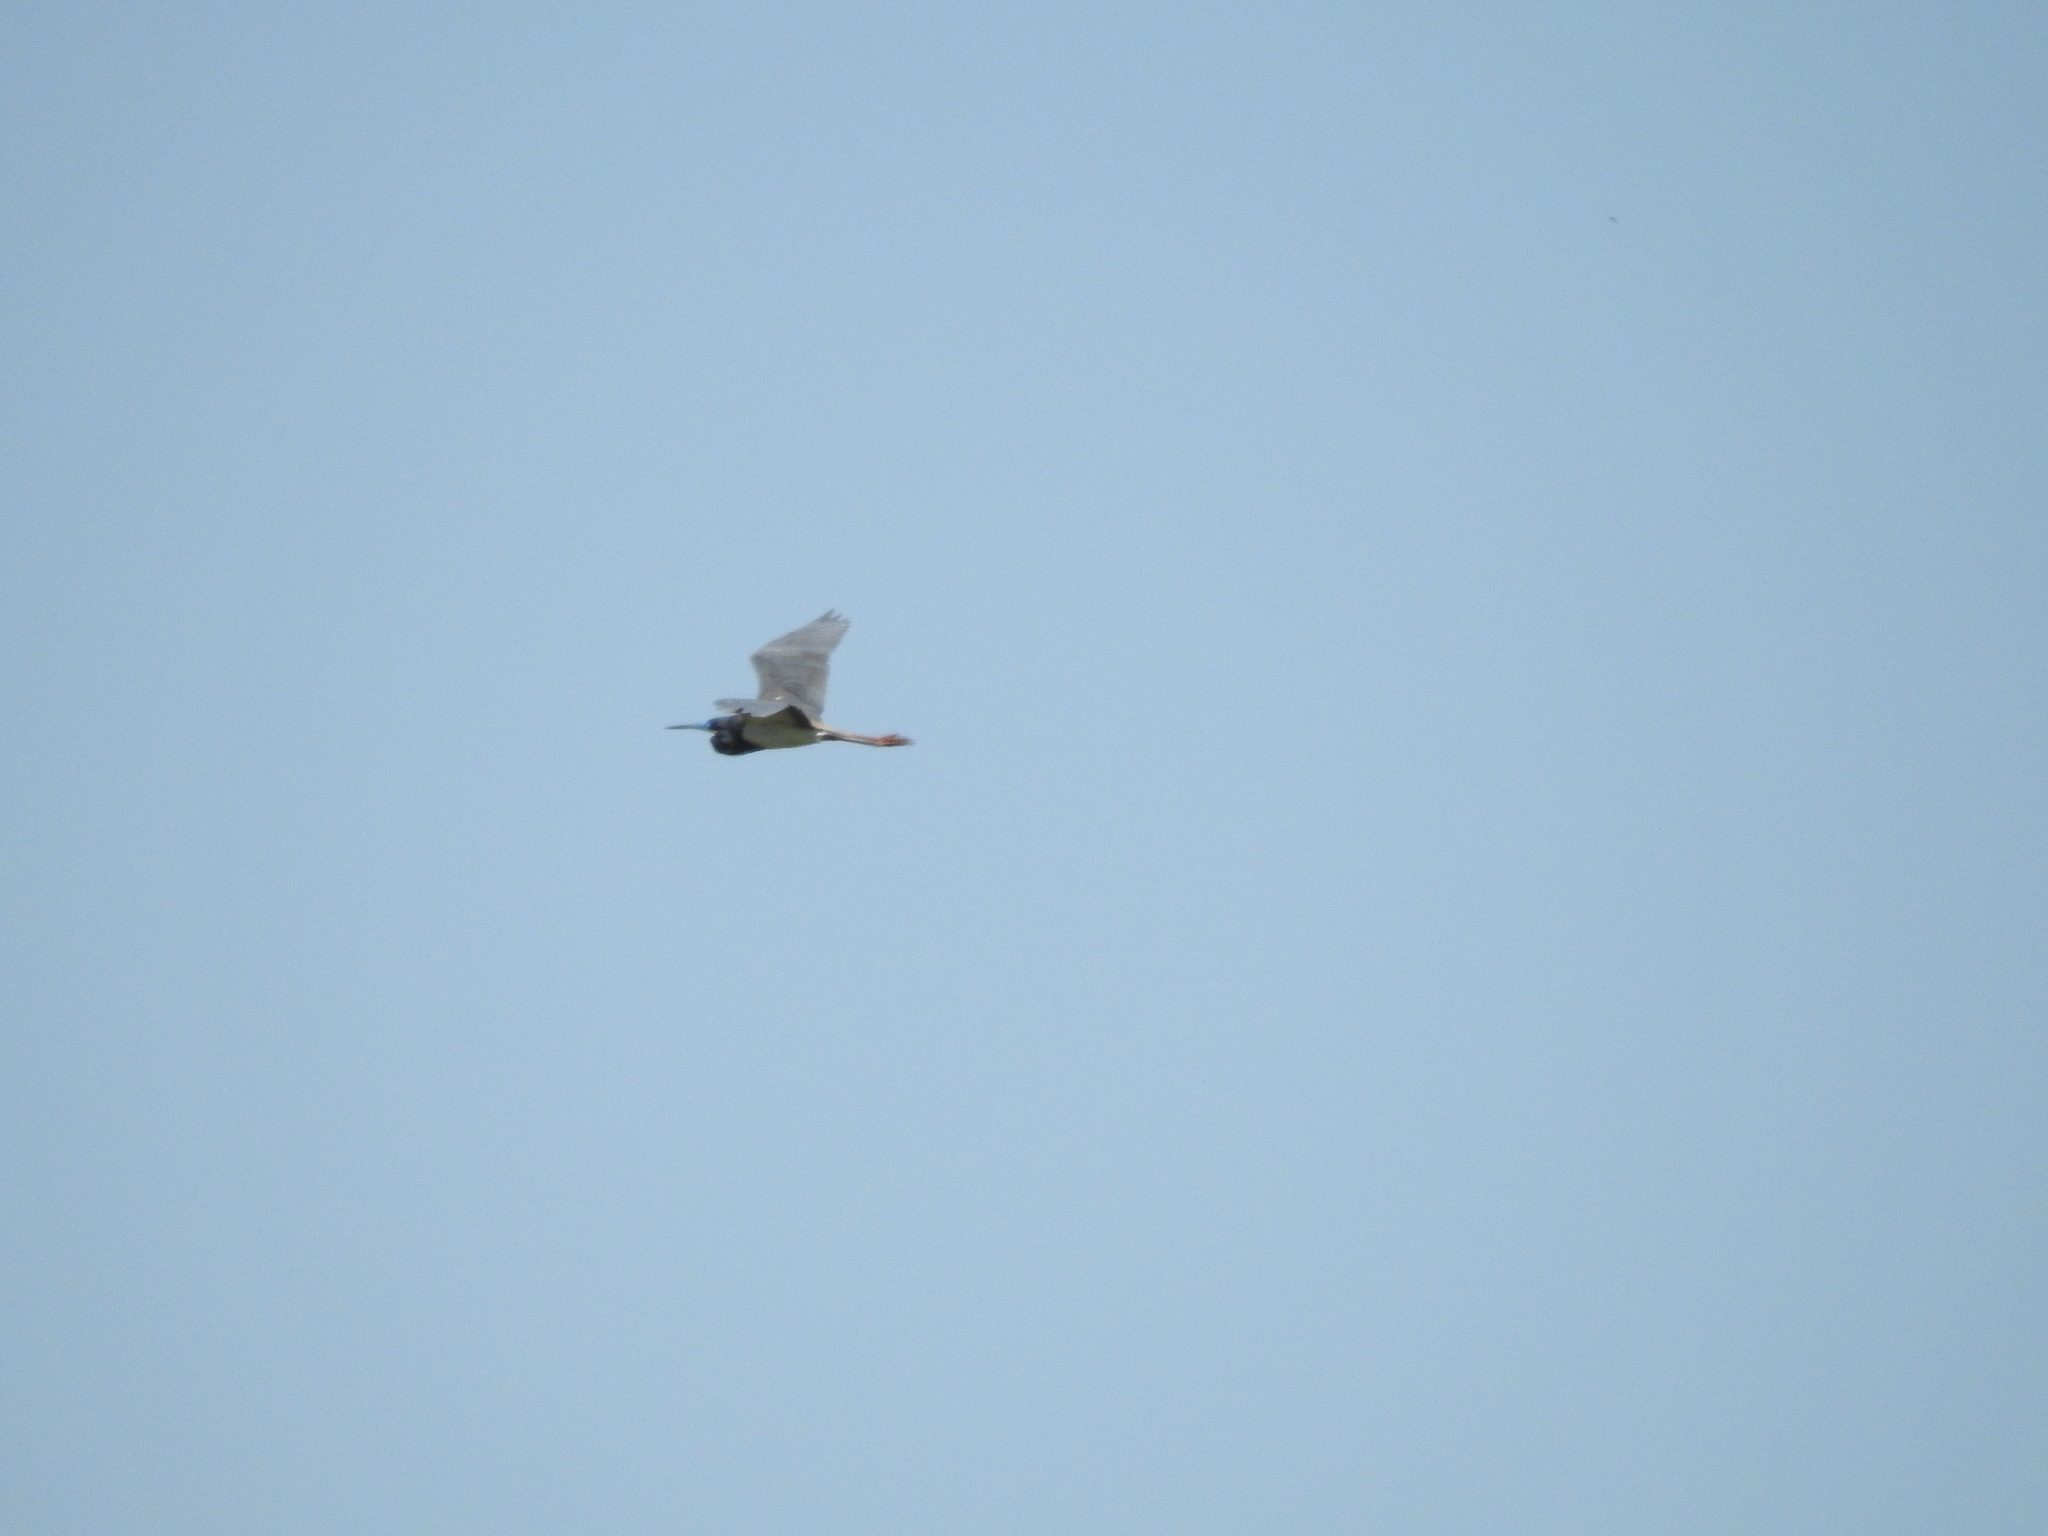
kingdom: Animalia
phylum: Chordata
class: Aves
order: Pelecaniformes
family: Ardeidae
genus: Egretta
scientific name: Egretta tricolor
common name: Tricolored heron
